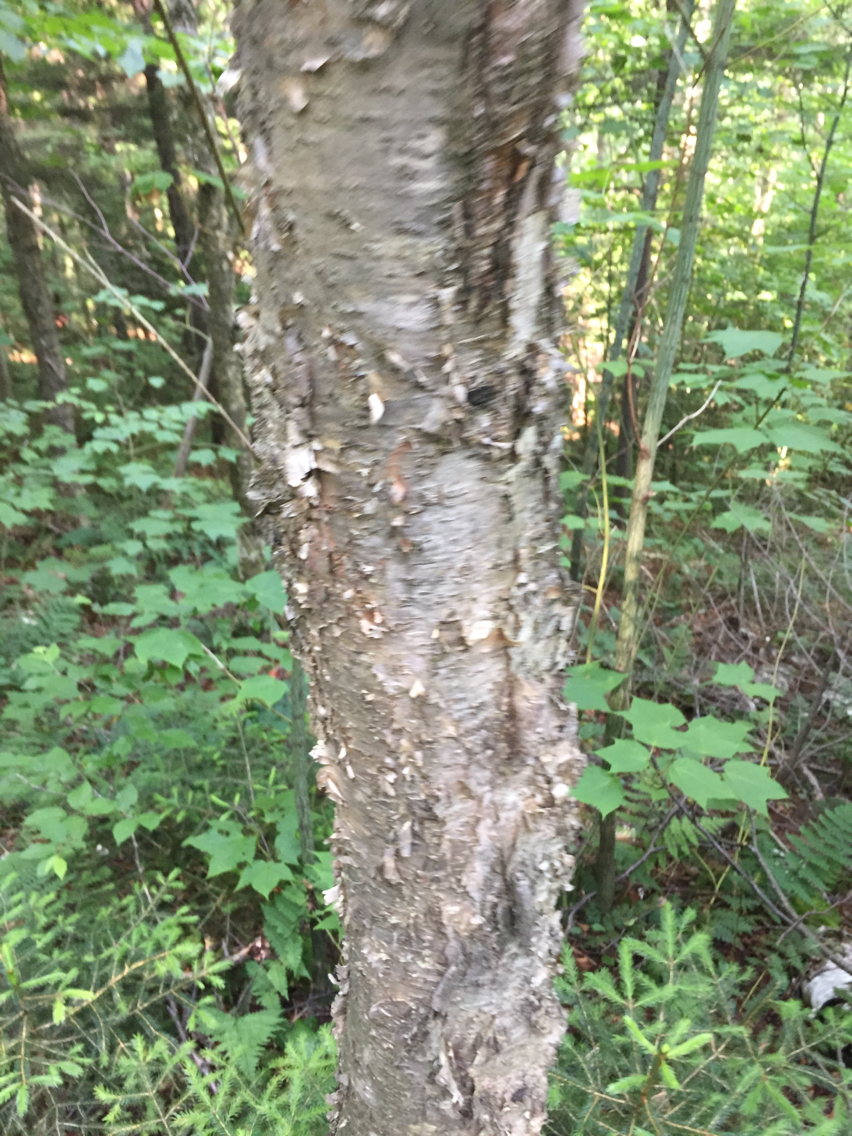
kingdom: Plantae
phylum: Tracheophyta
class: Magnoliopsida
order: Fagales
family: Betulaceae
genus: Betula
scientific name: Betula alleghaniensis
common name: Yellow birch
